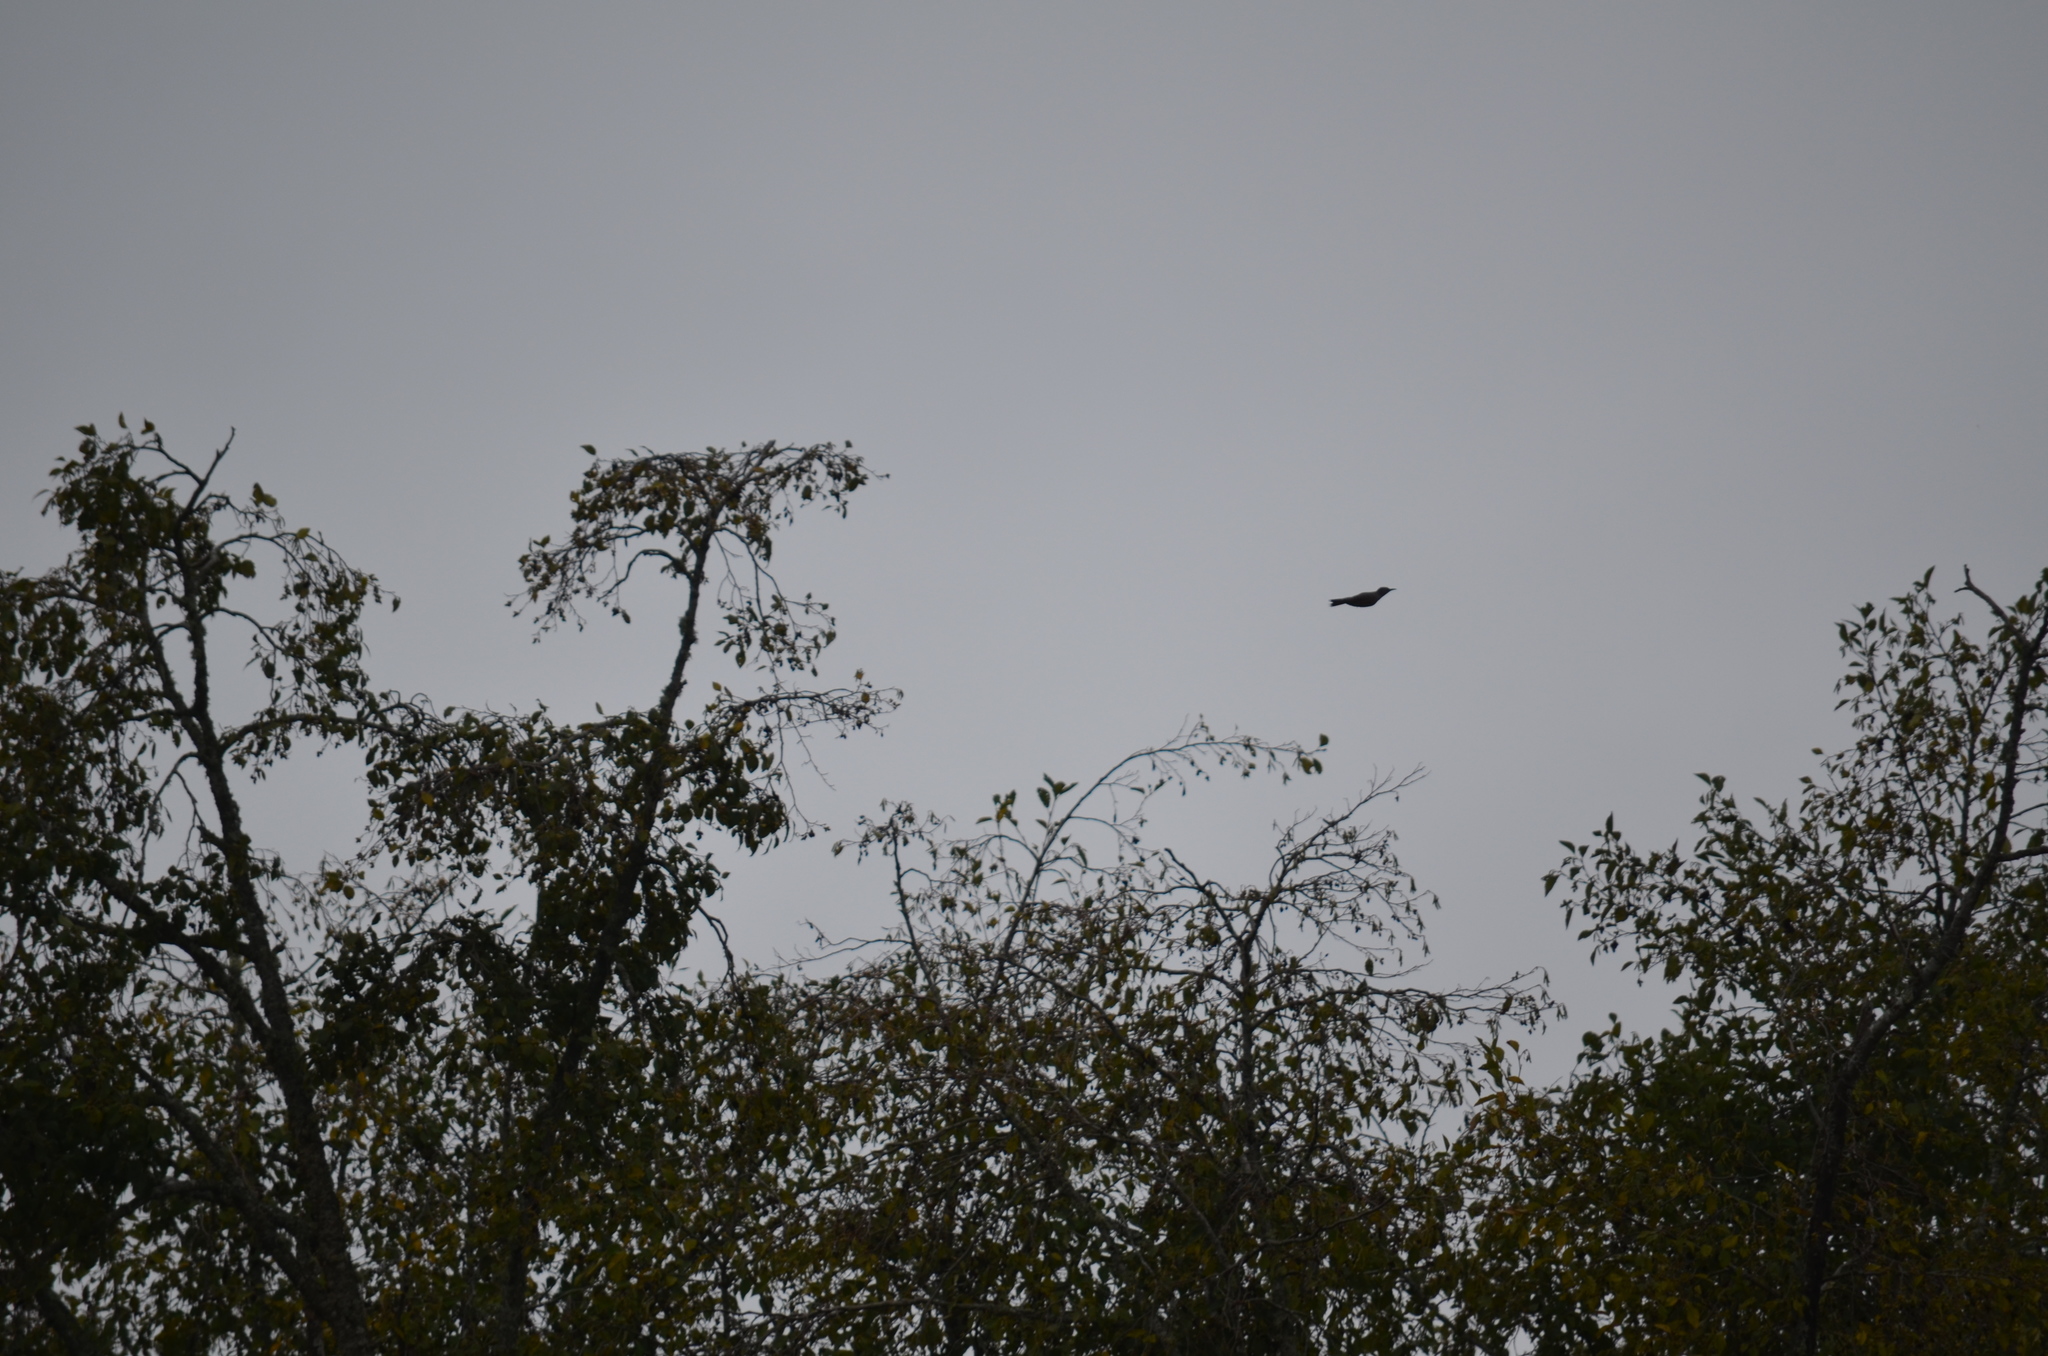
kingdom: Animalia
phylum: Chordata
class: Aves
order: Piciformes
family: Picidae
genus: Colaptes
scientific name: Colaptes auratus
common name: Northern flicker
